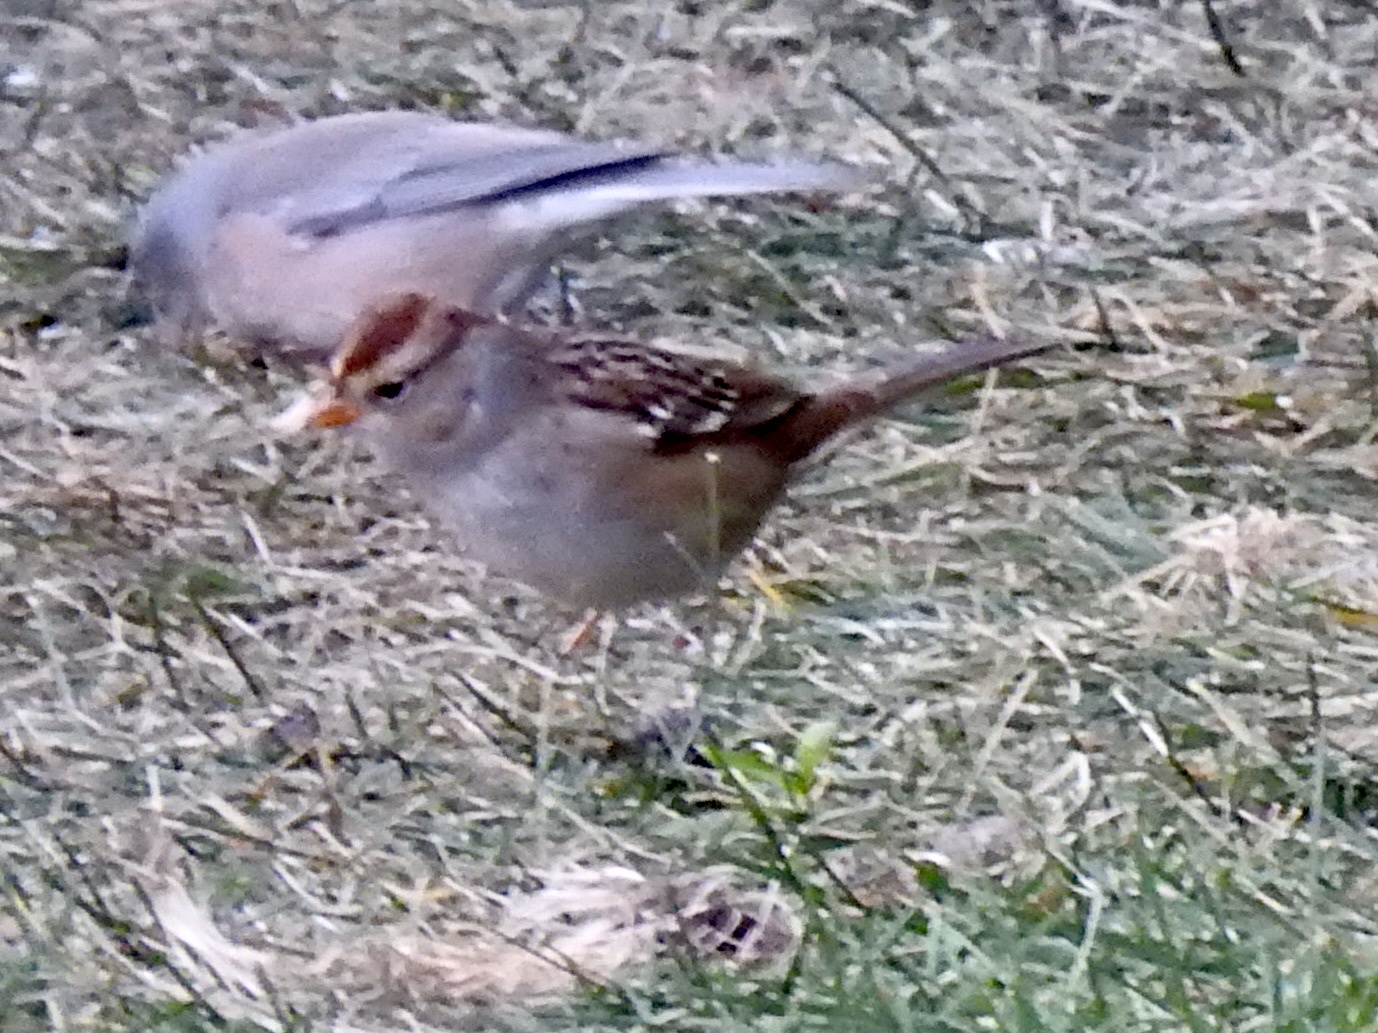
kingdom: Animalia
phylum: Chordata
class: Aves
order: Passeriformes
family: Passerellidae
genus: Zonotrichia
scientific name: Zonotrichia leucophrys
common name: White-crowned sparrow
